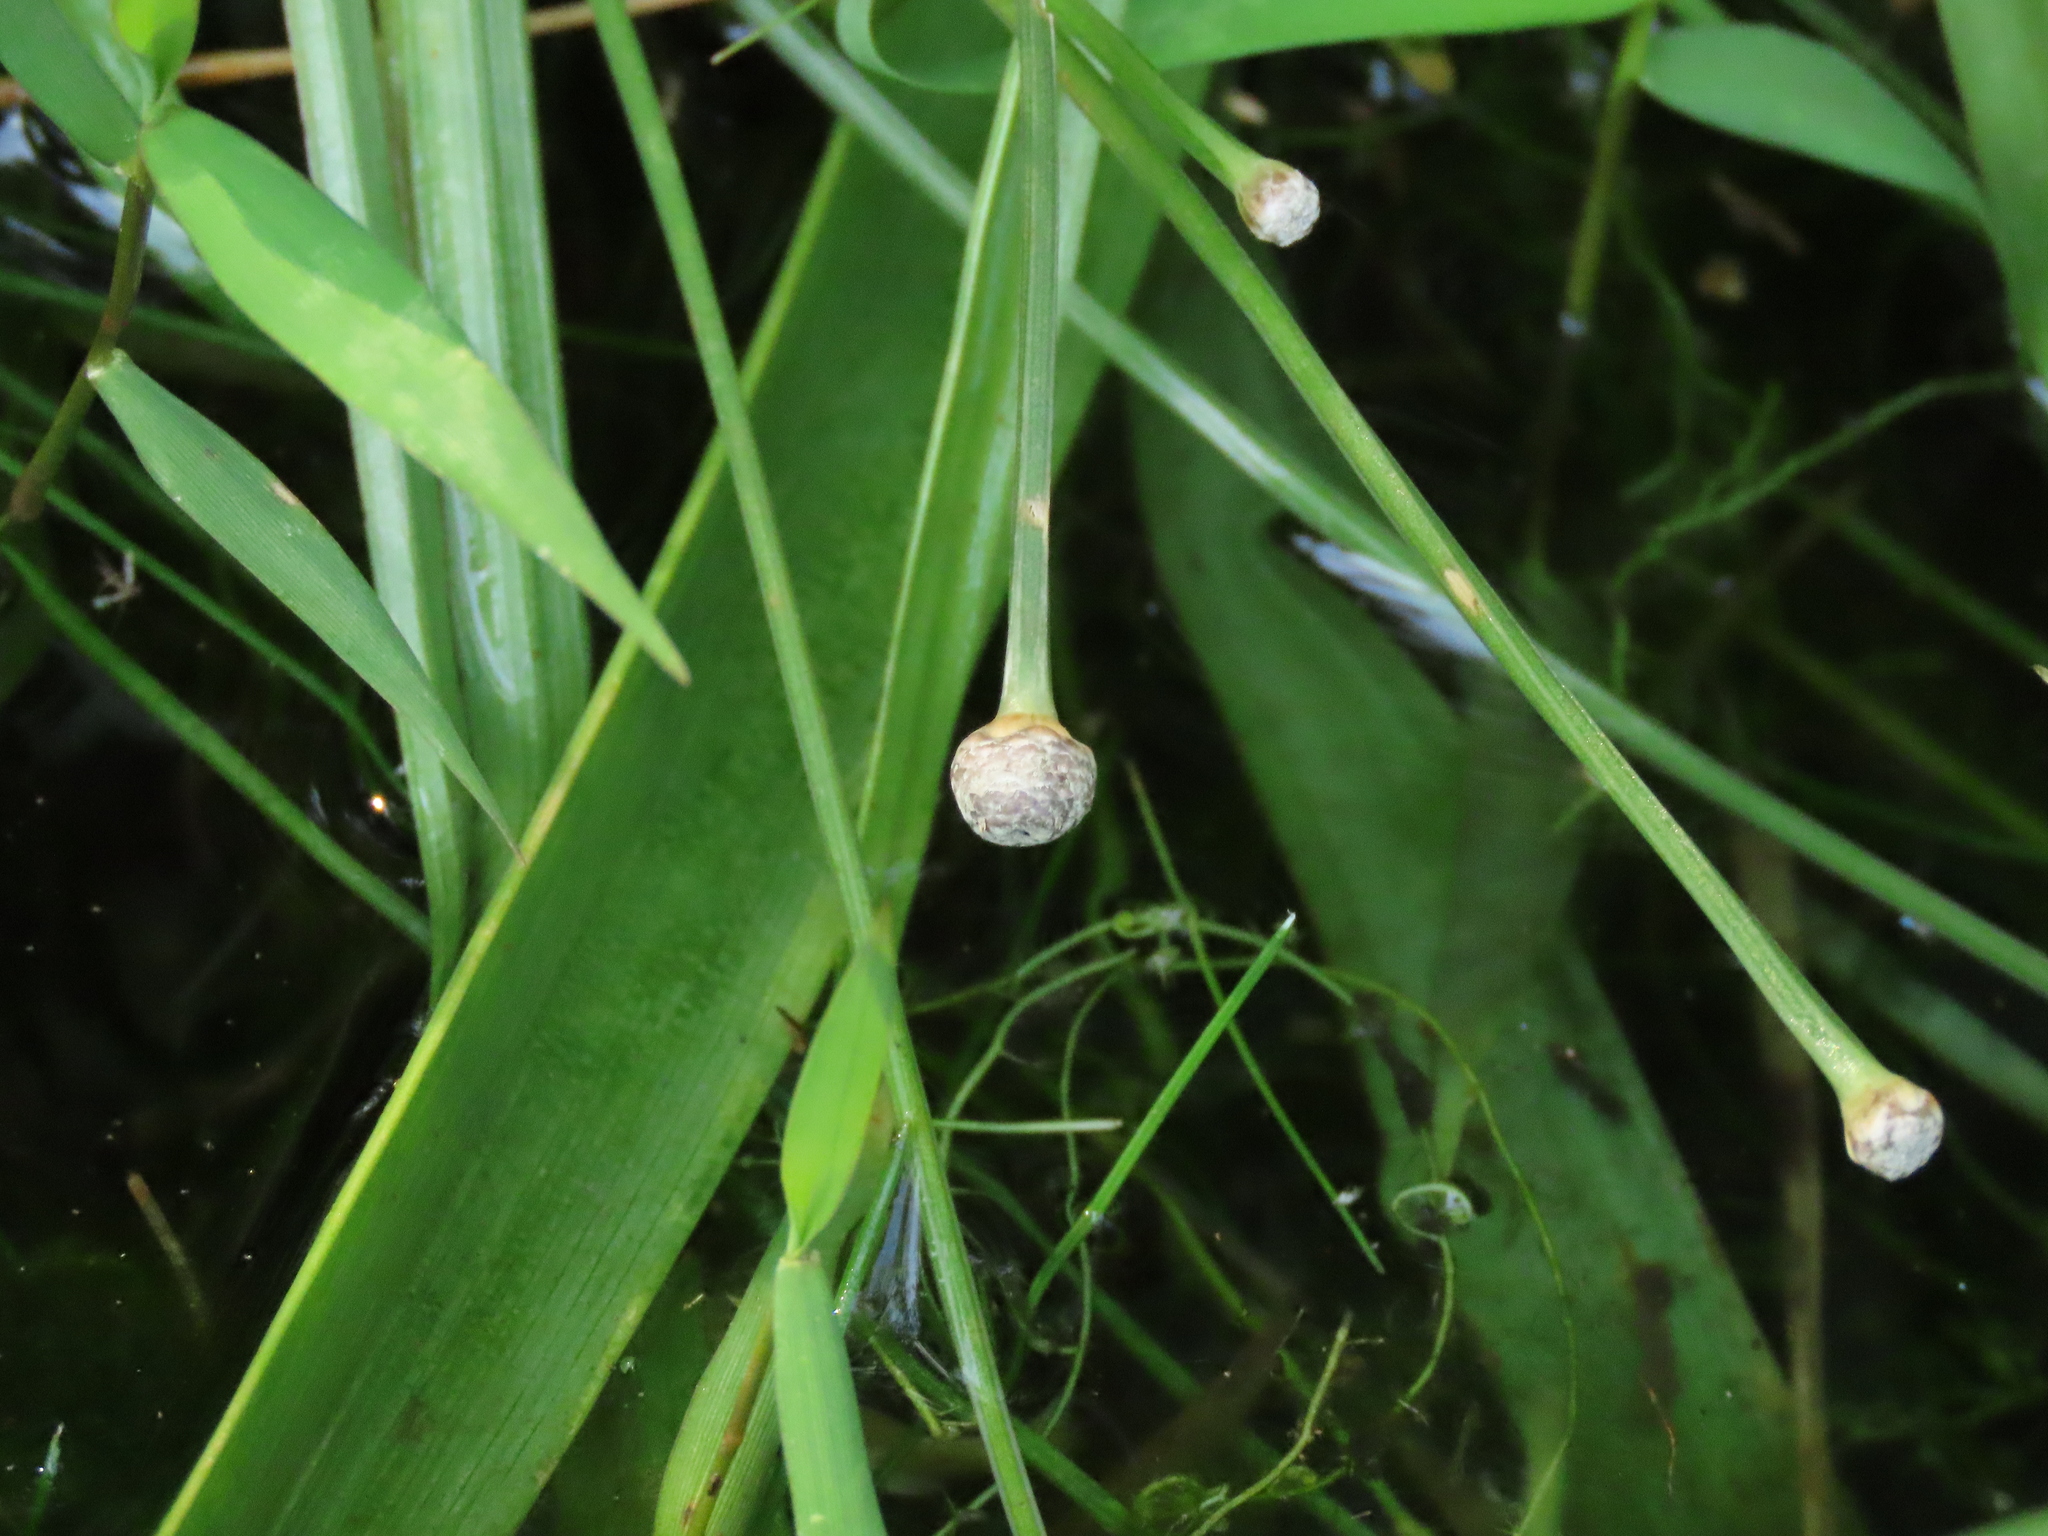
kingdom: Plantae
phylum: Tracheophyta
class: Liliopsida
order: Poales
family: Eriocaulaceae
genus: Eriocaulon
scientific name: Eriocaulon sexangulare
